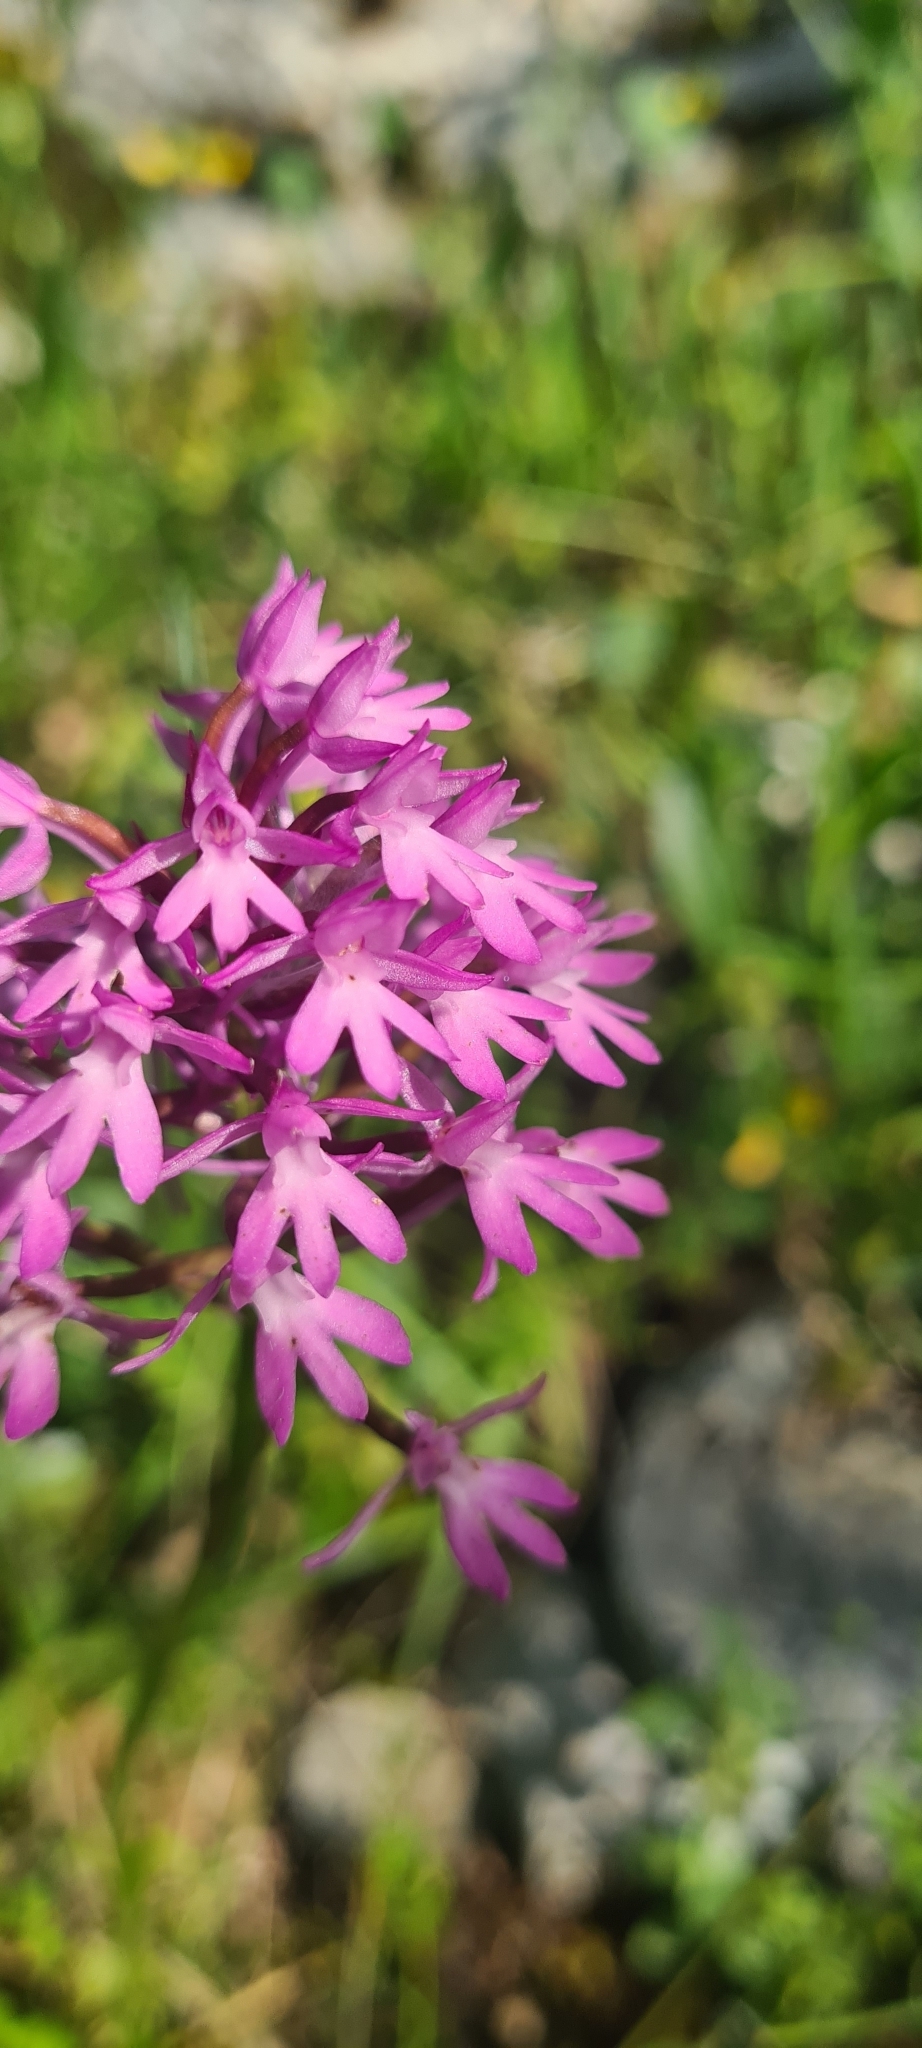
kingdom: Plantae
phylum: Tracheophyta
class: Liliopsida
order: Asparagales
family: Orchidaceae
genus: Anacamptis
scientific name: Anacamptis pyramidalis
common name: Pyramidal orchid
